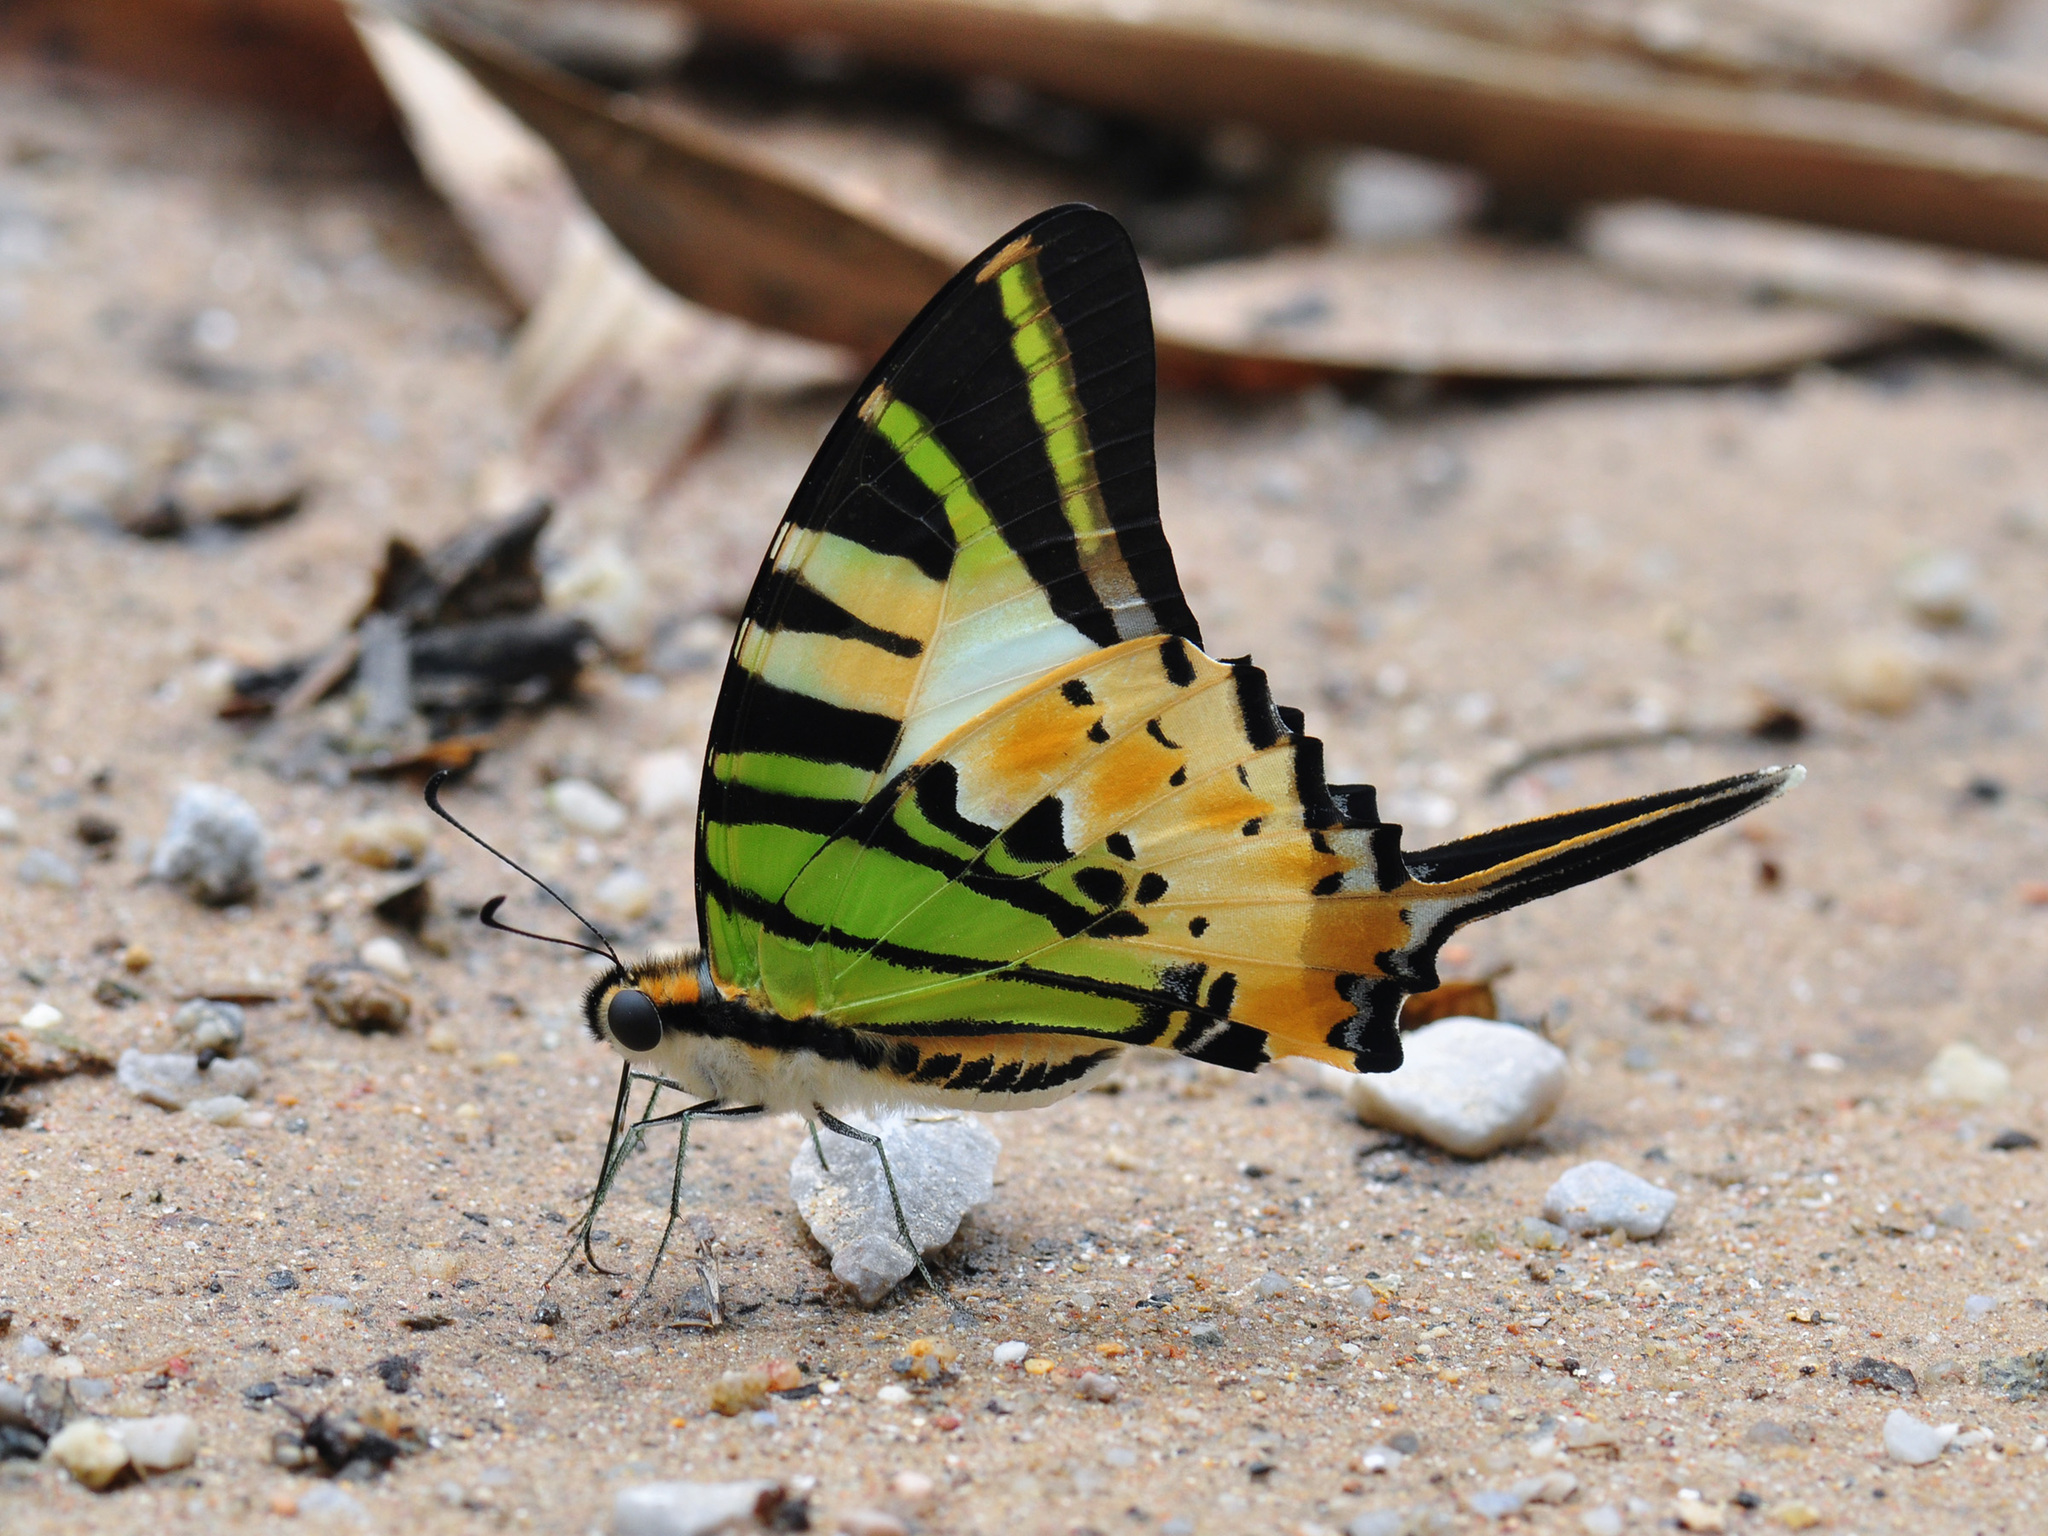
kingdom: Animalia
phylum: Arthropoda
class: Insecta
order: Lepidoptera
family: Papilionidae
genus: Graphium
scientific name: Graphium antiphates
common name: Fivebar swordtail
